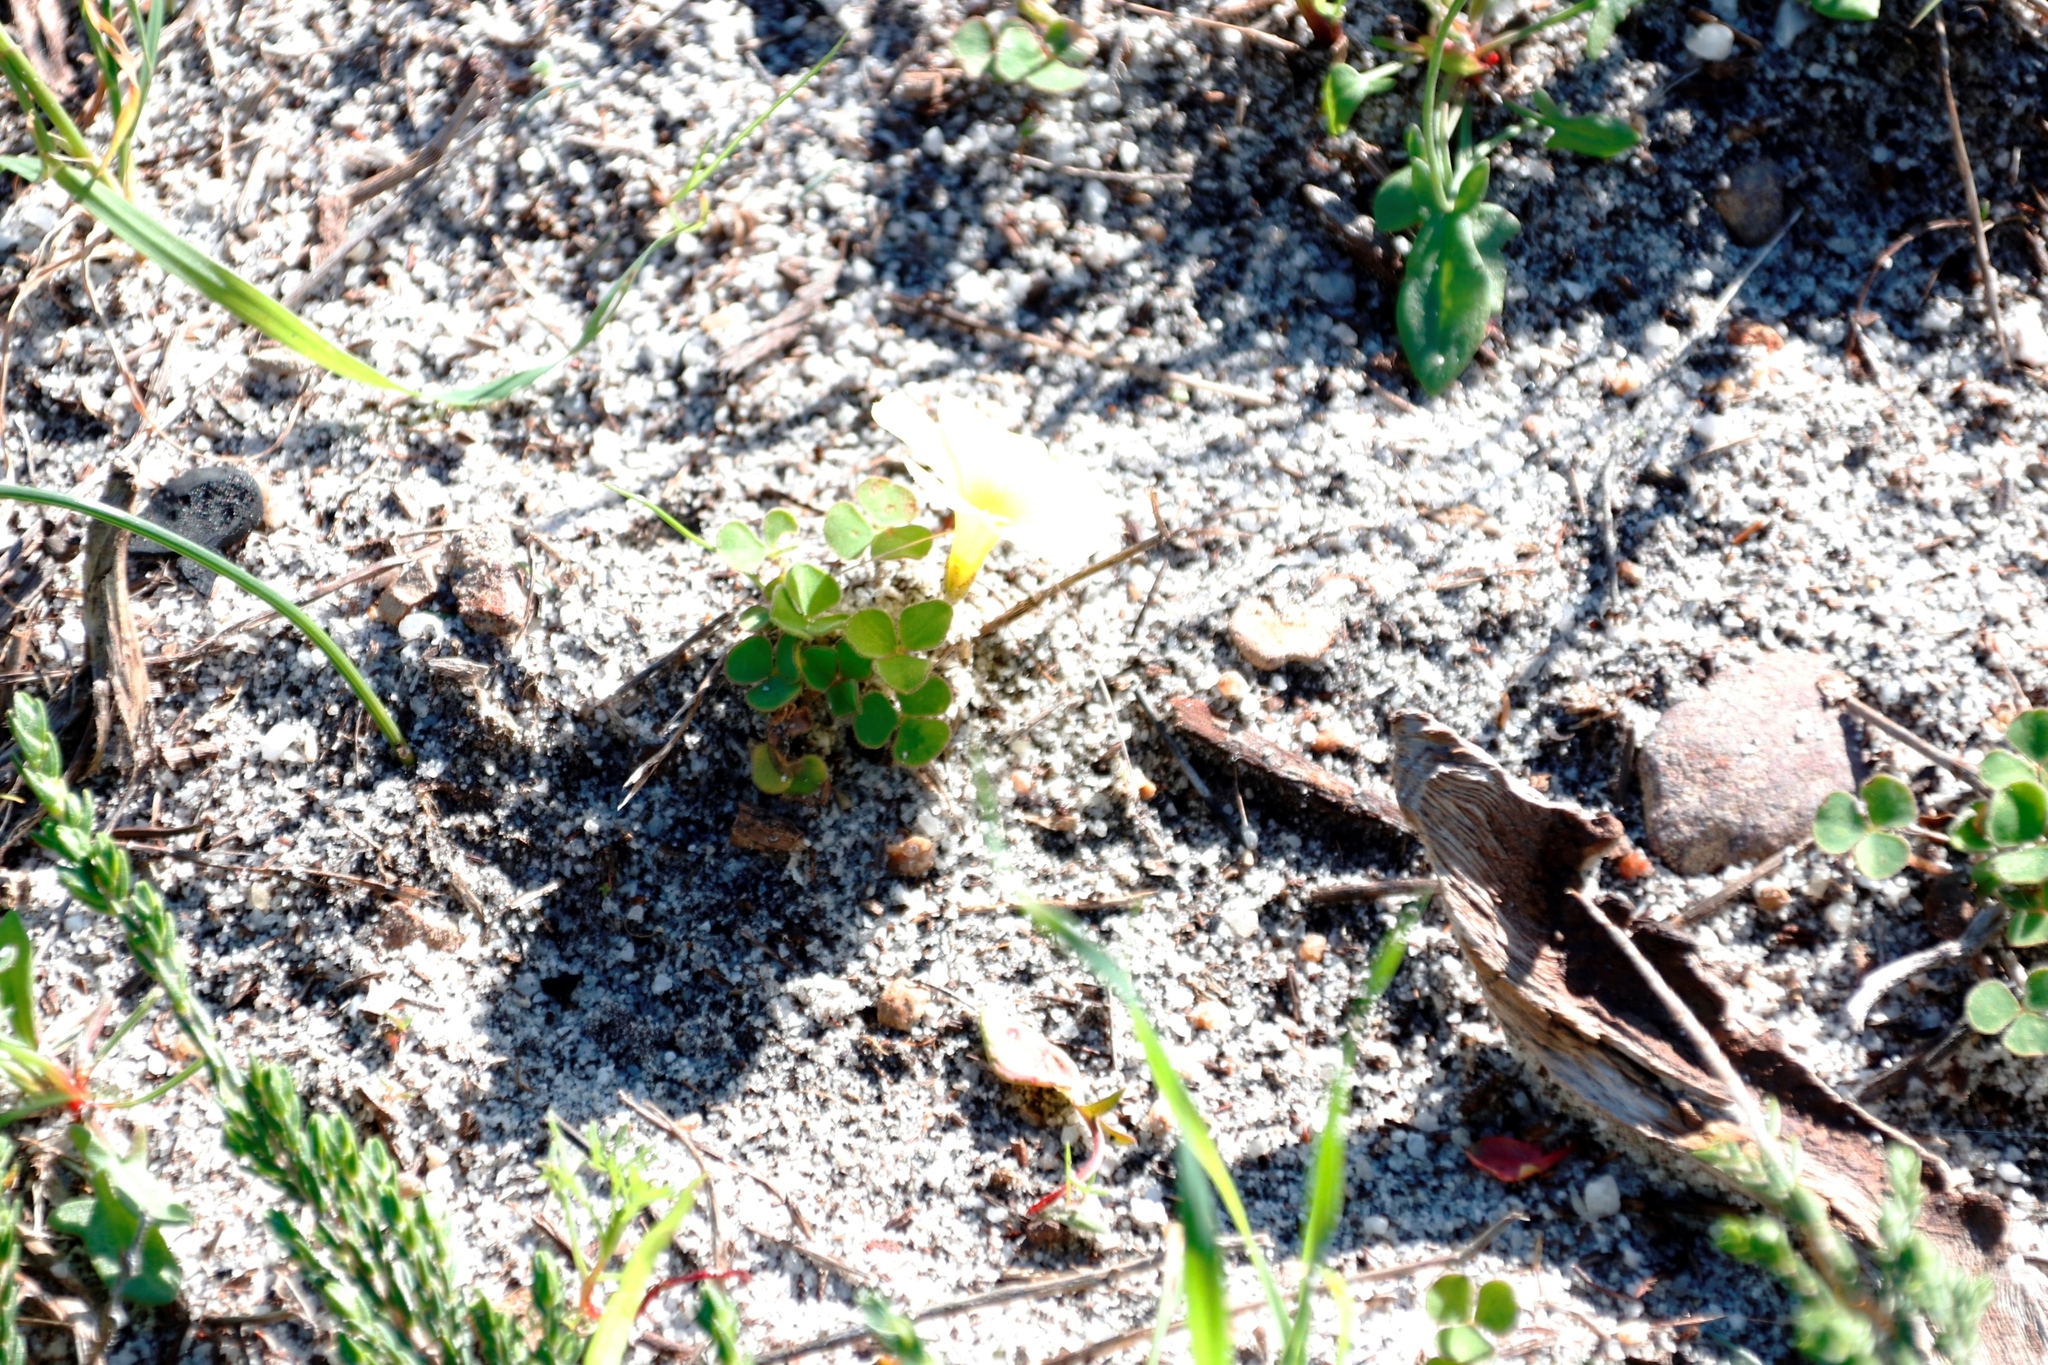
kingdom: Plantae
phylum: Tracheophyta
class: Magnoliopsida
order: Oxalidales
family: Oxalidaceae
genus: Oxalis
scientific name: Oxalis luteola
